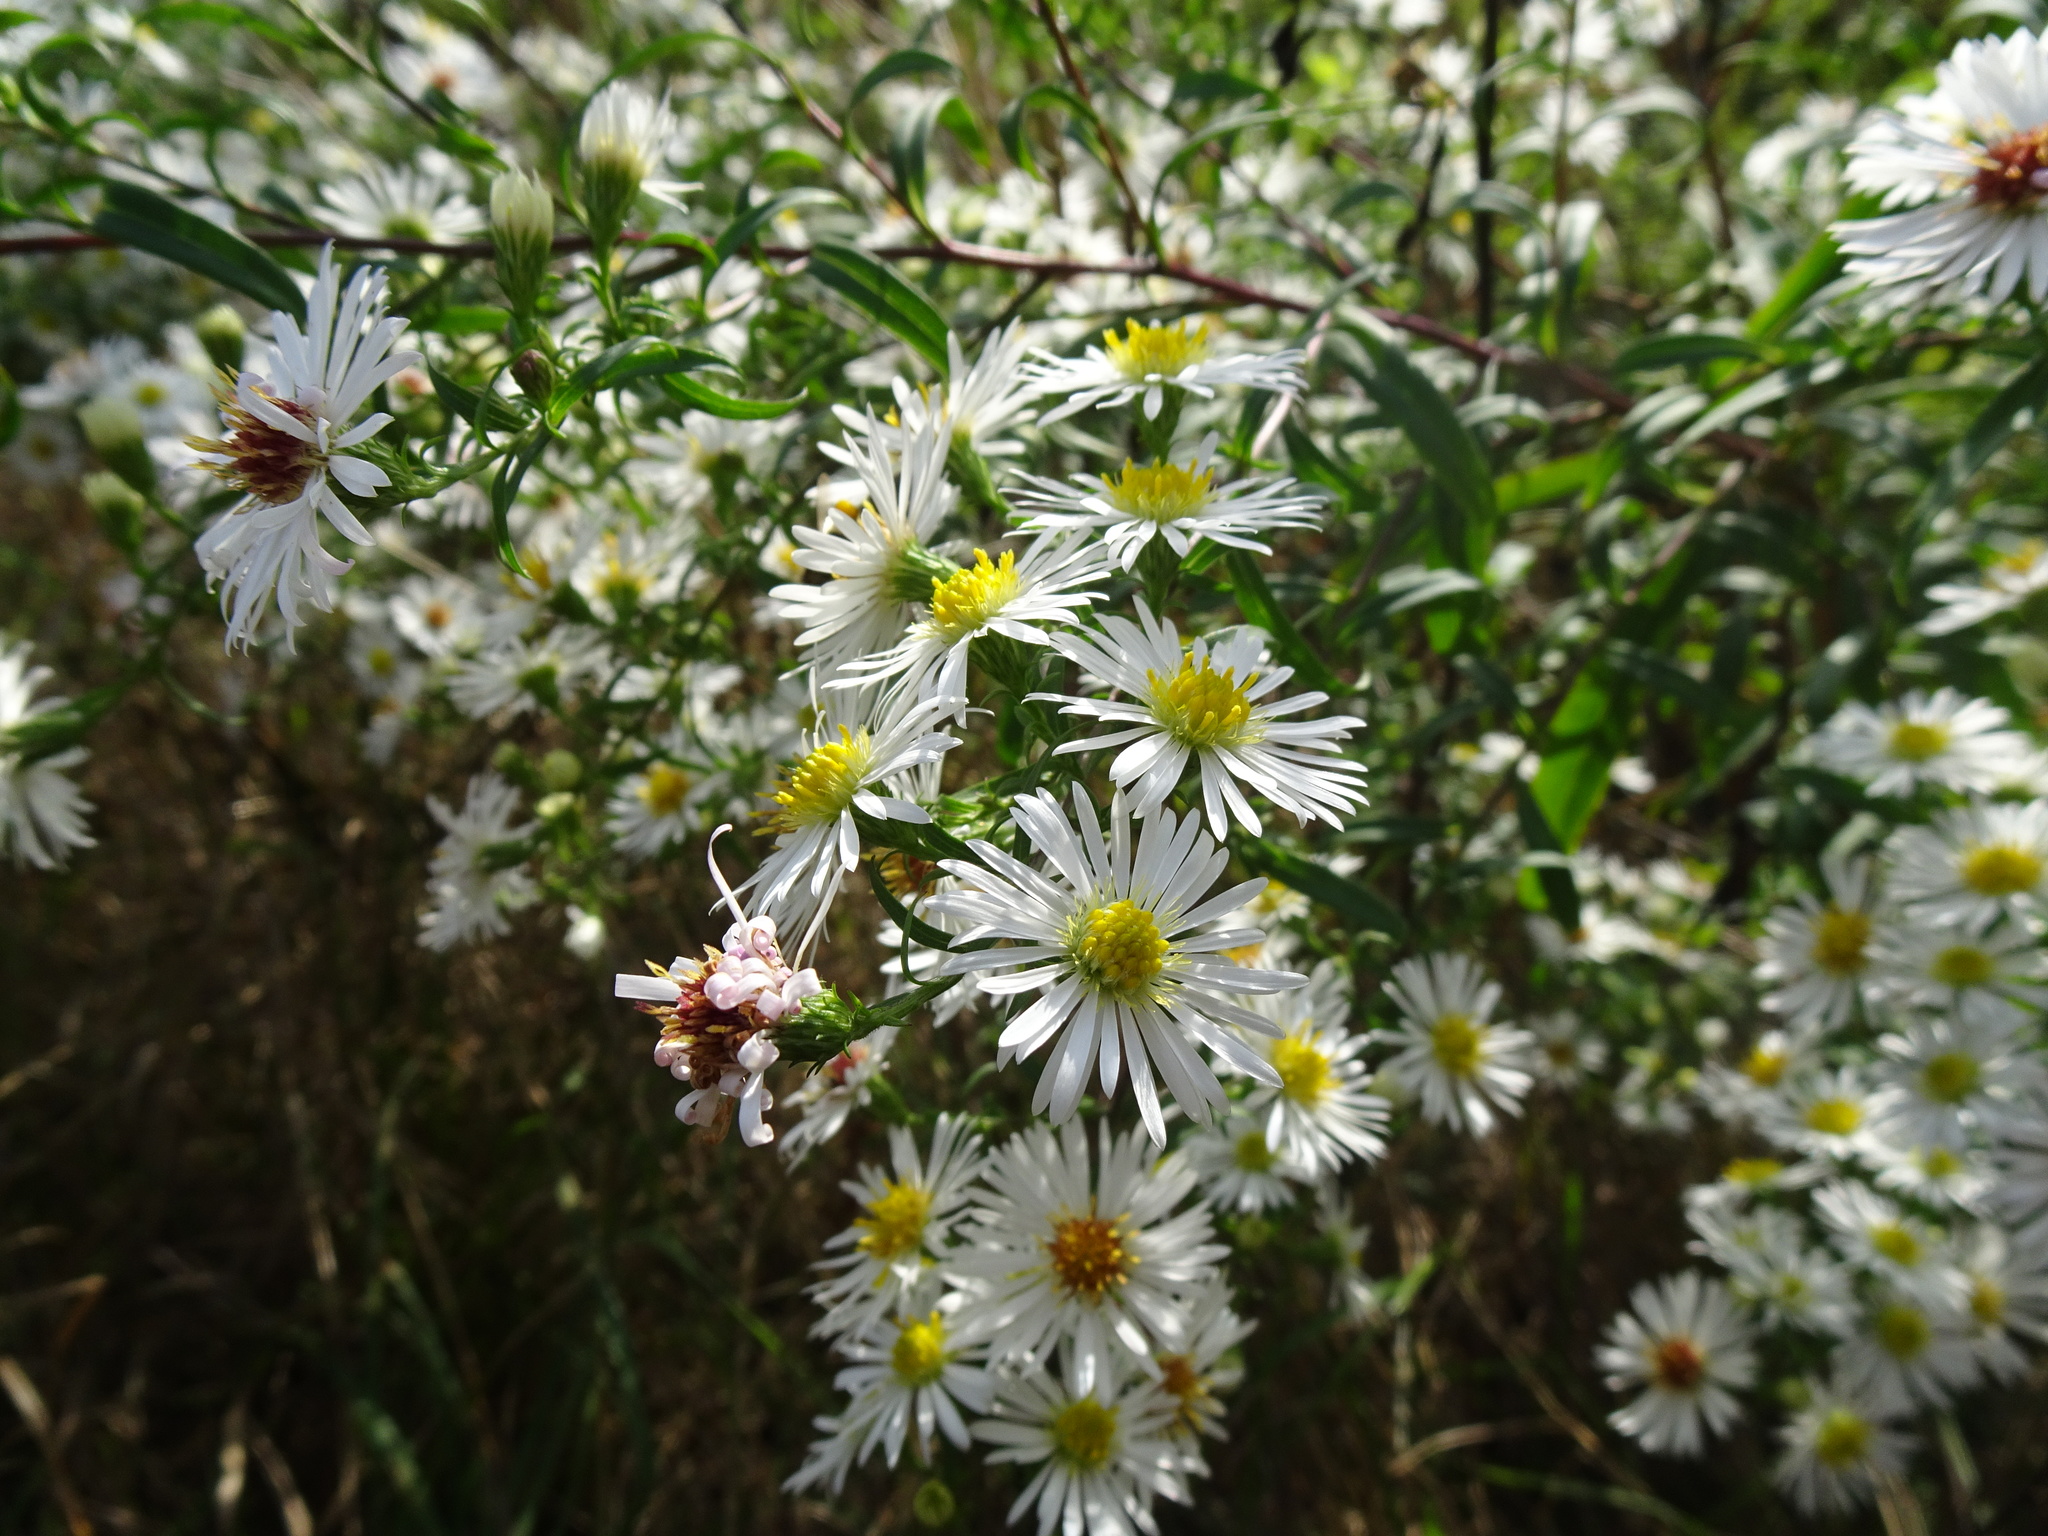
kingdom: Plantae
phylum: Tracheophyta
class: Magnoliopsida
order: Asterales
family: Asteraceae
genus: Symphyotrichum
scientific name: Symphyotrichum lanceolatum
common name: Panicled aster
